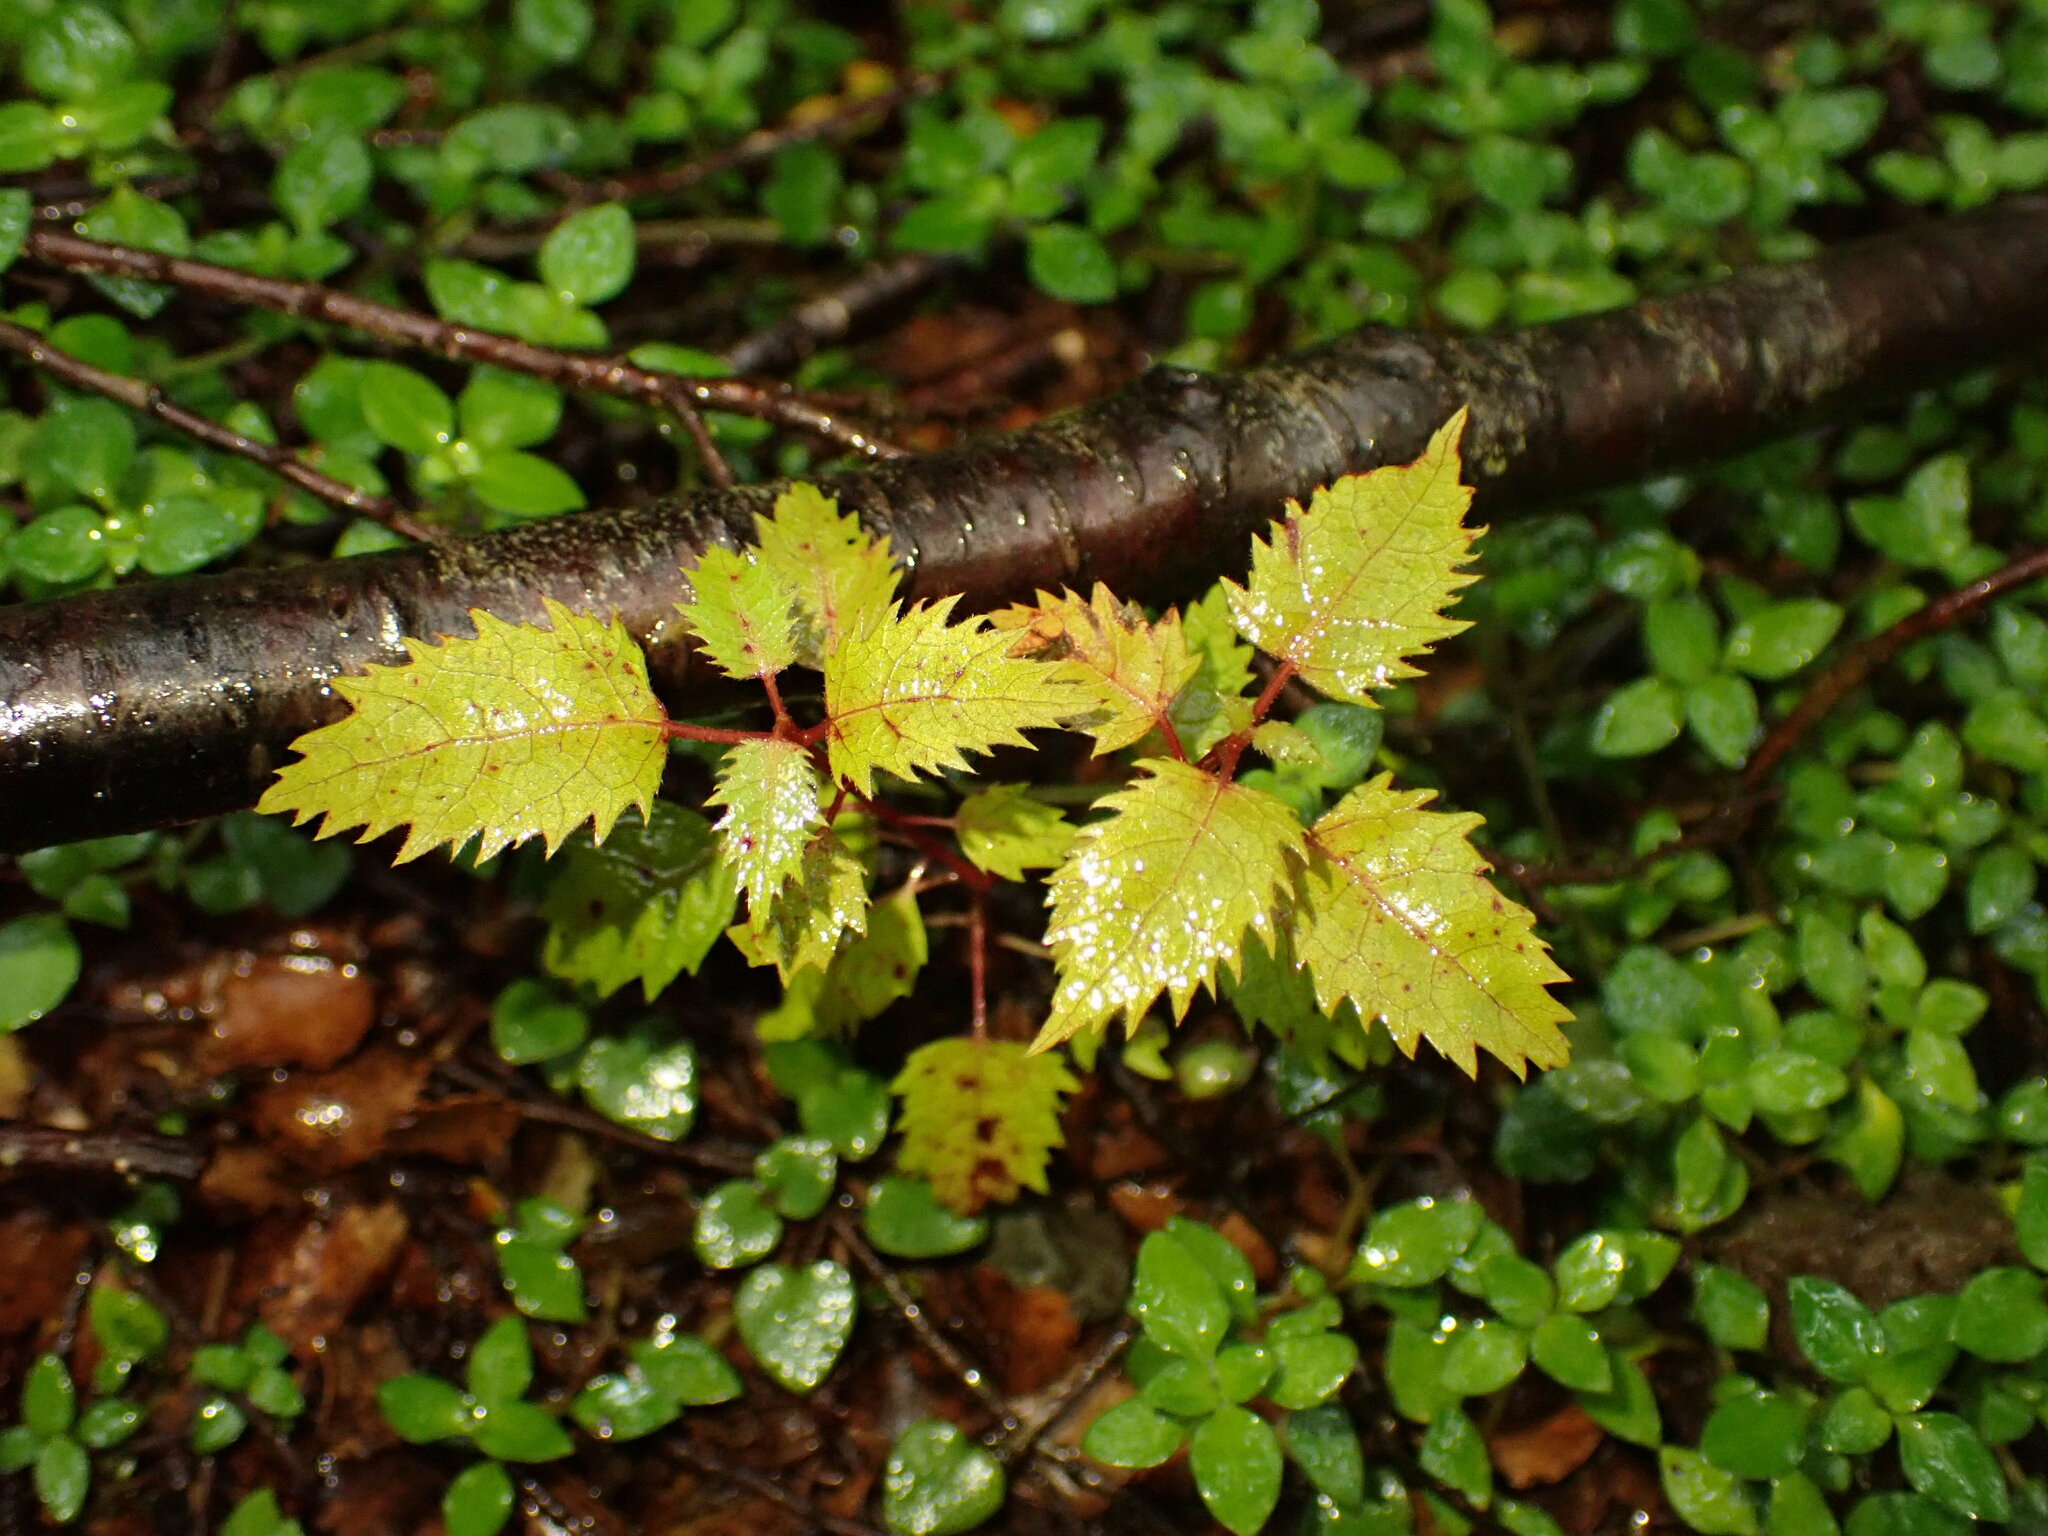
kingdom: Plantae
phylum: Tracheophyta
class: Magnoliopsida
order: Oxalidales
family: Elaeocarpaceae
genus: Aristotelia
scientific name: Aristotelia serrata
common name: New zealand wineberry
